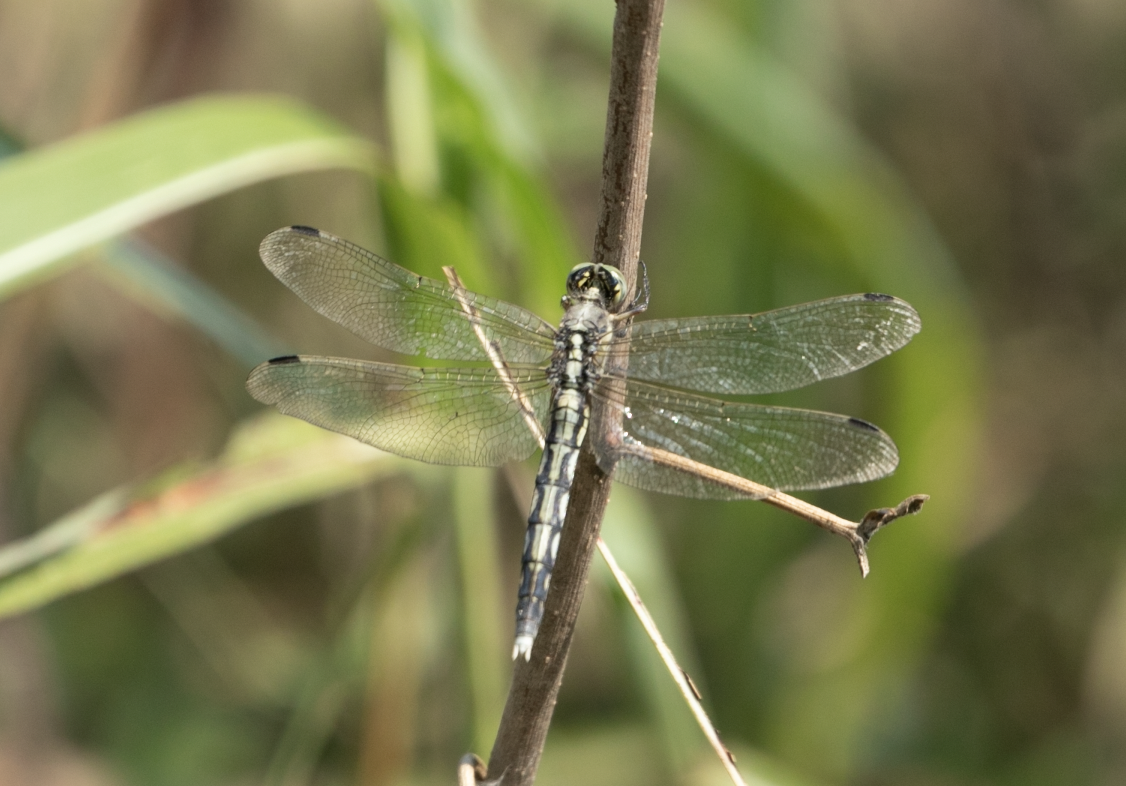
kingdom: Animalia
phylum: Arthropoda
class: Insecta
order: Odonata
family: Libellulidae
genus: Orthetrum
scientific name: Orthetrum albistylum
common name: White-tailed skimmer
